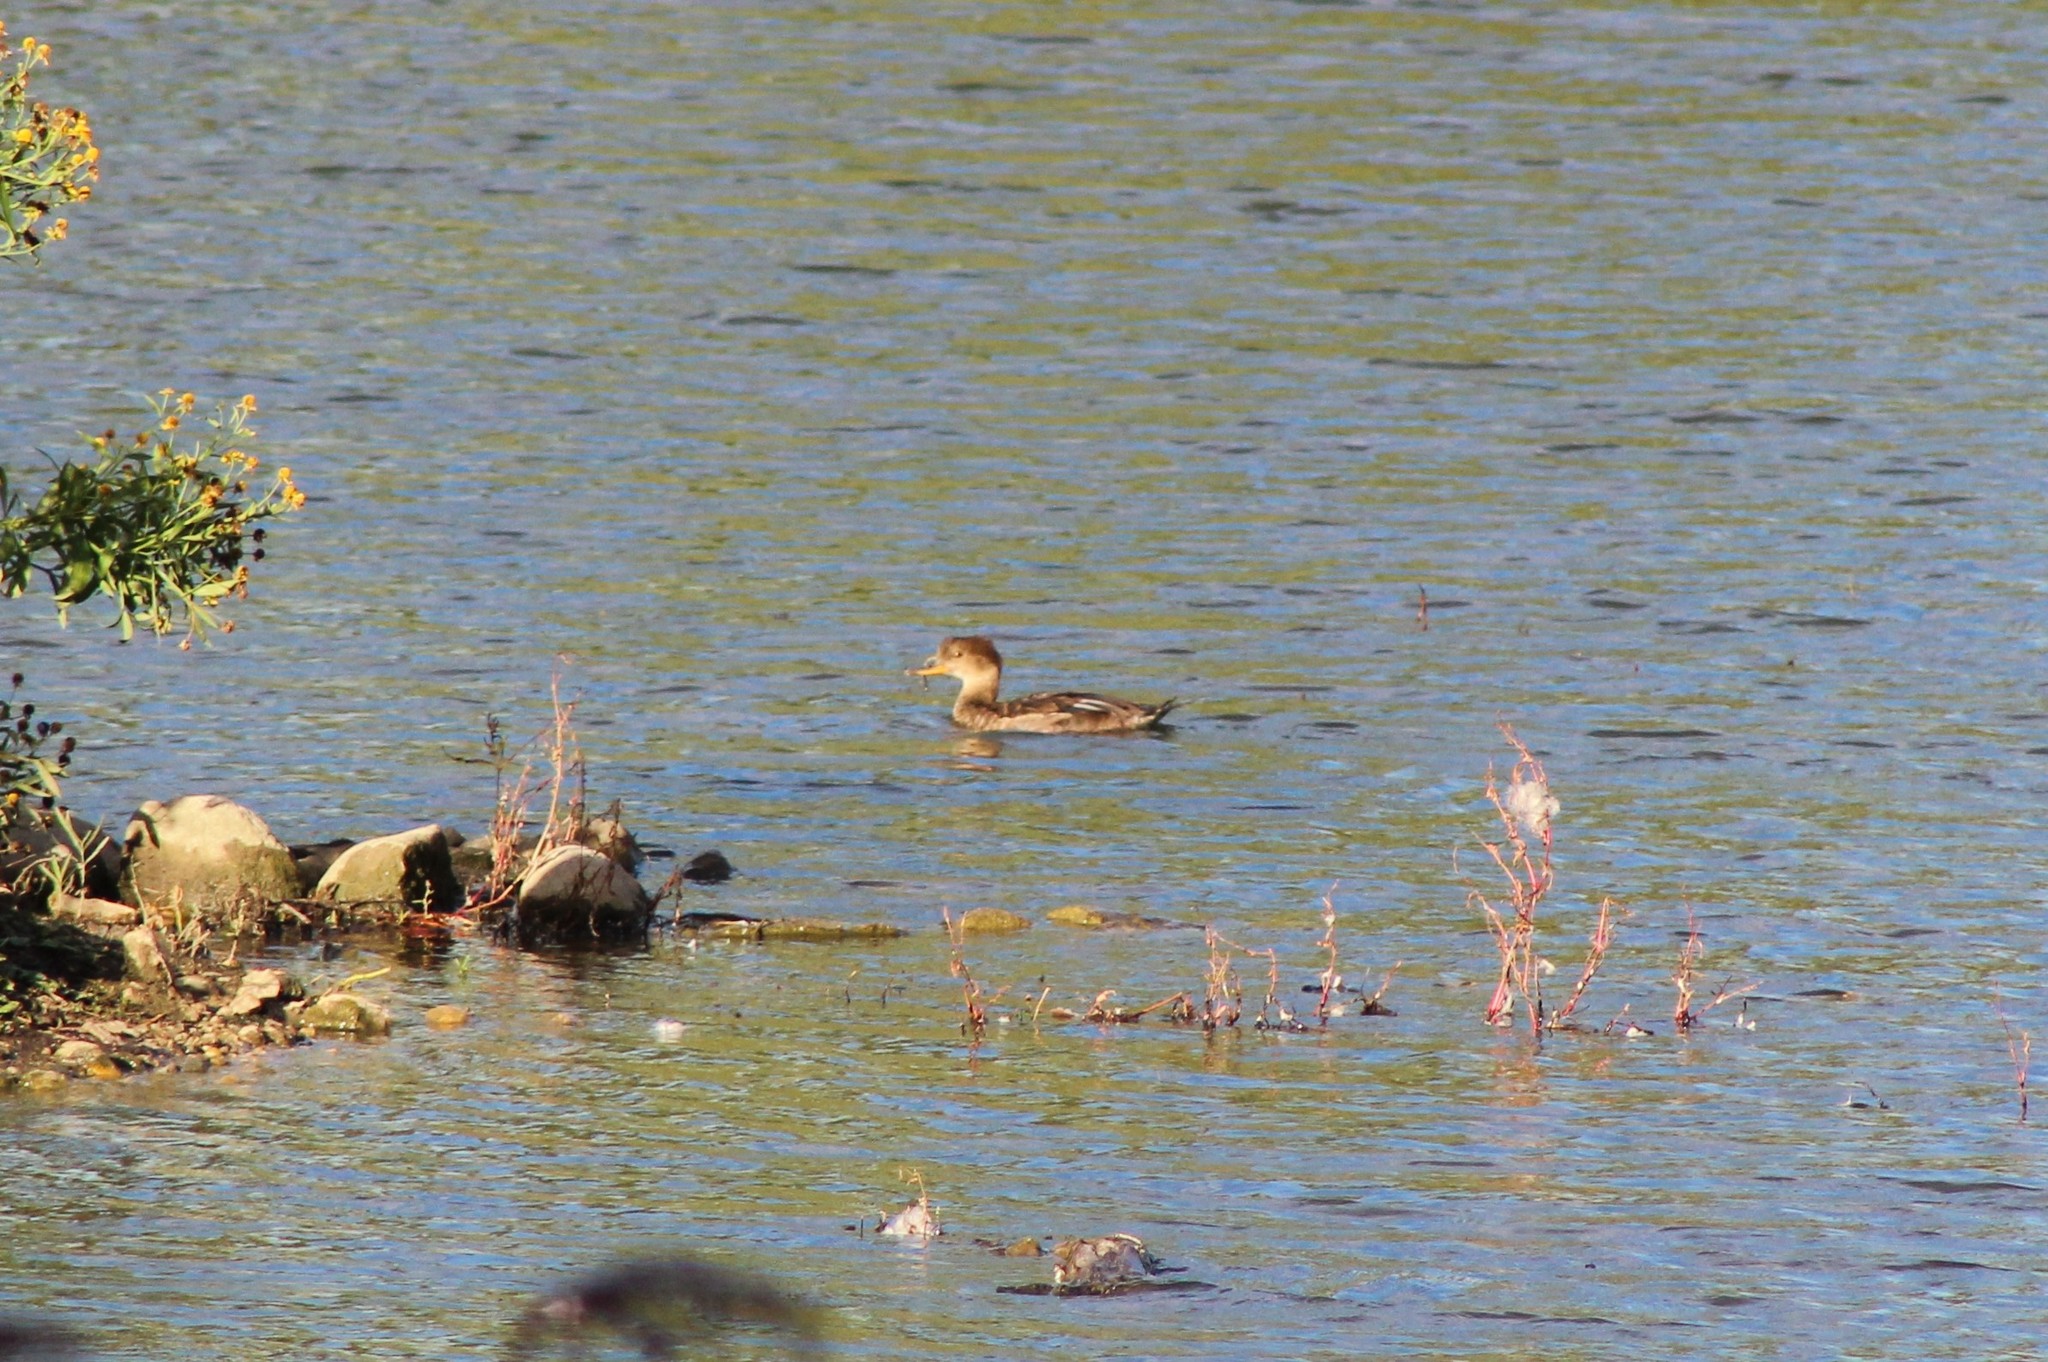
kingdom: Animalia
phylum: Chordata
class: Aves
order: Anseriformes
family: Anatidae
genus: Lophodytes
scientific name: Lophodytes cucullatus
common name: Hooded merganser
